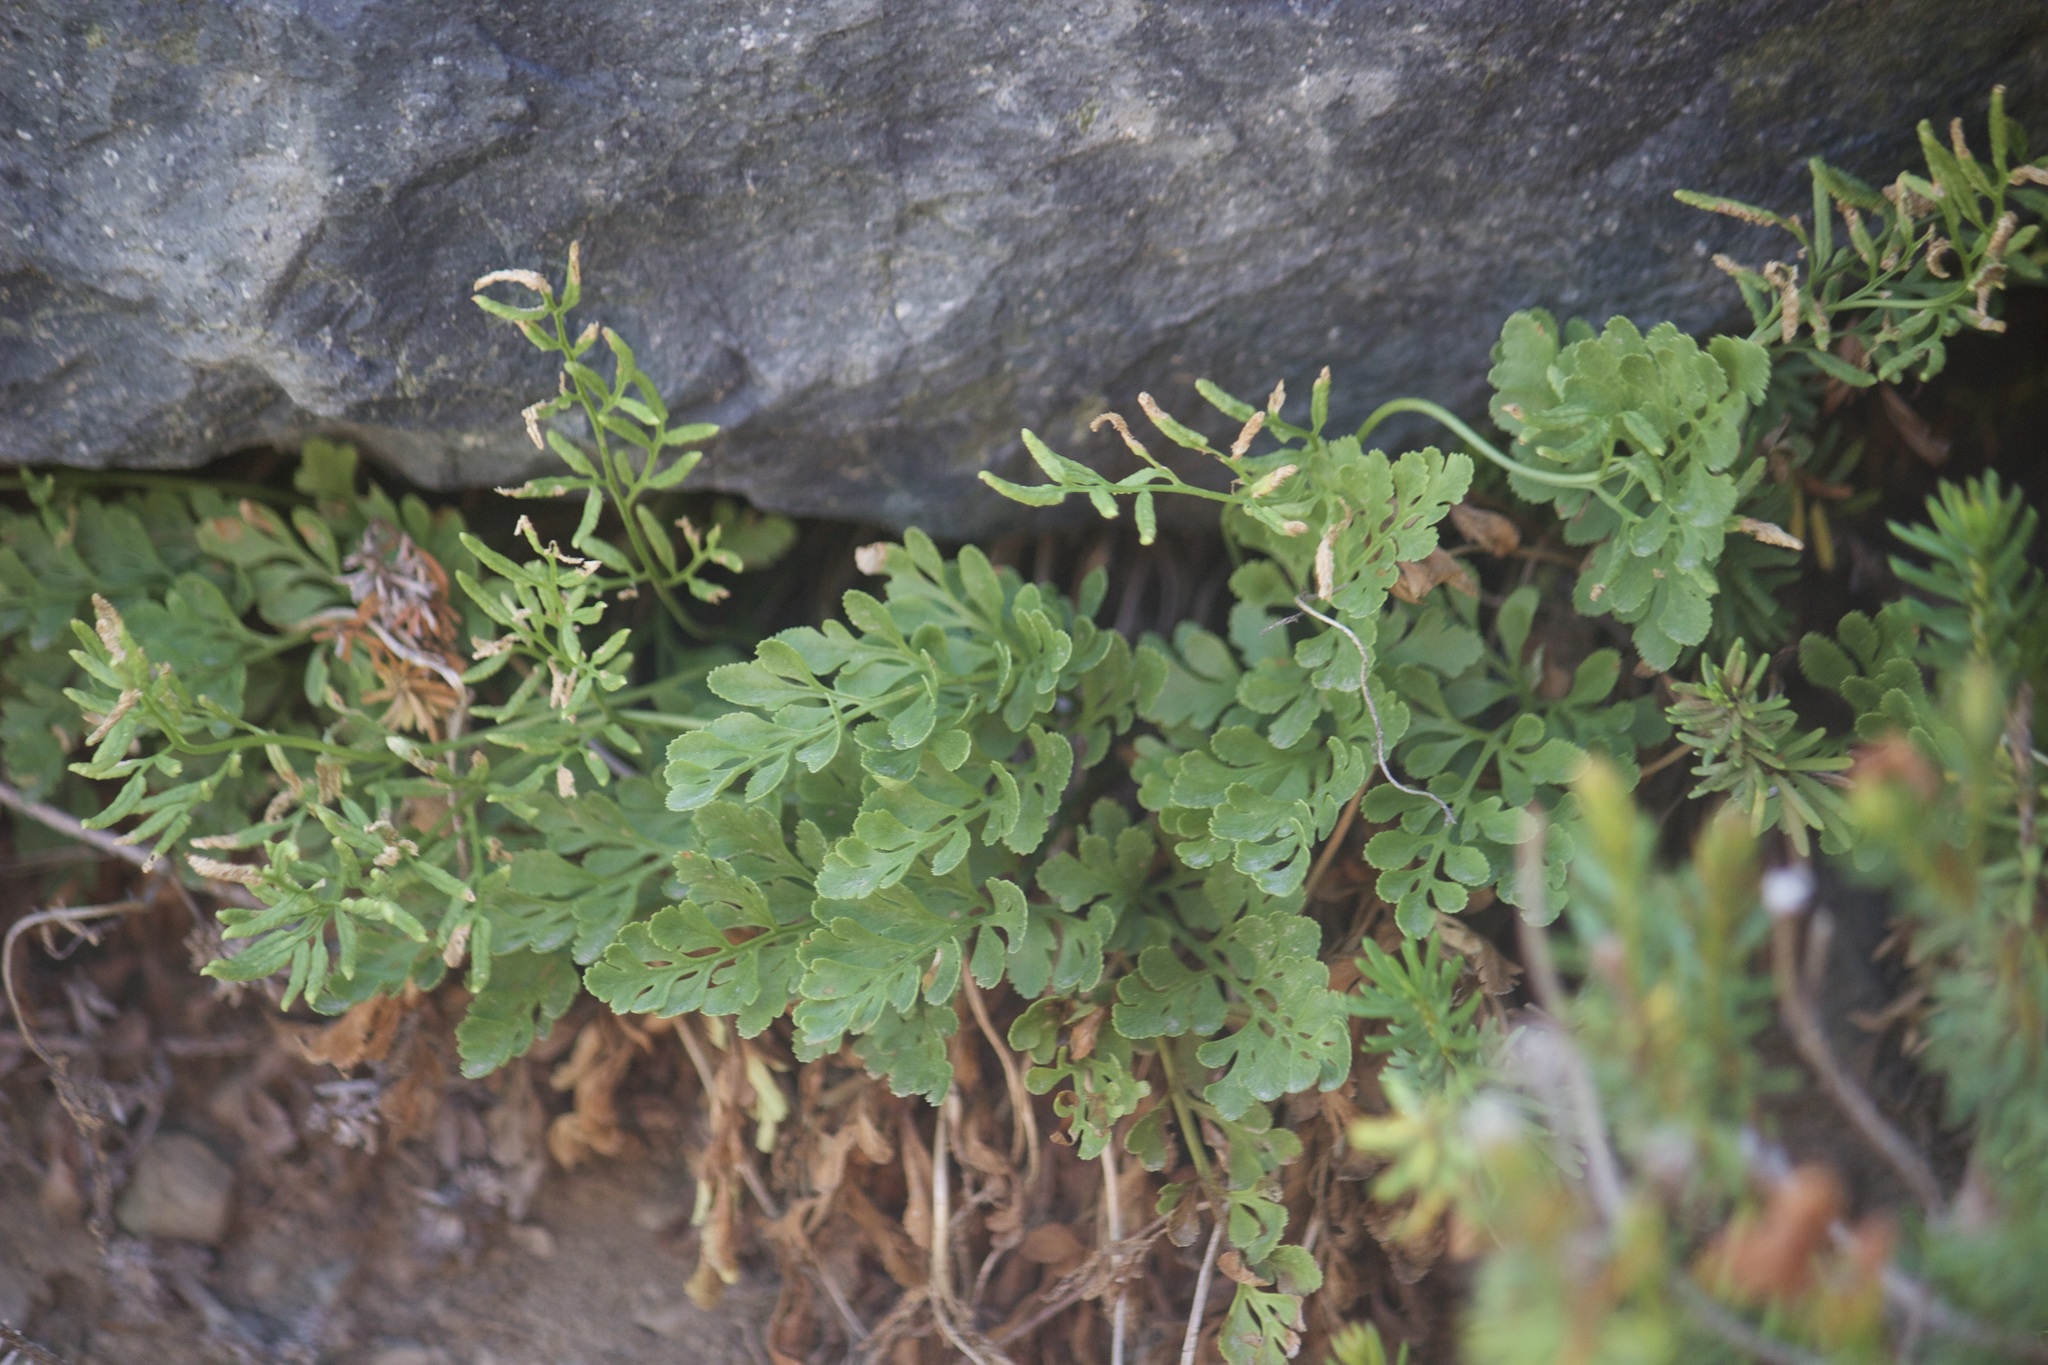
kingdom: Plantae
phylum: Tracheophyta
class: Polypodiopsida
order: Polypodiales
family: Pteridaceae
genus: Cryptogramma
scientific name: Cryptogramma acrostichoides
